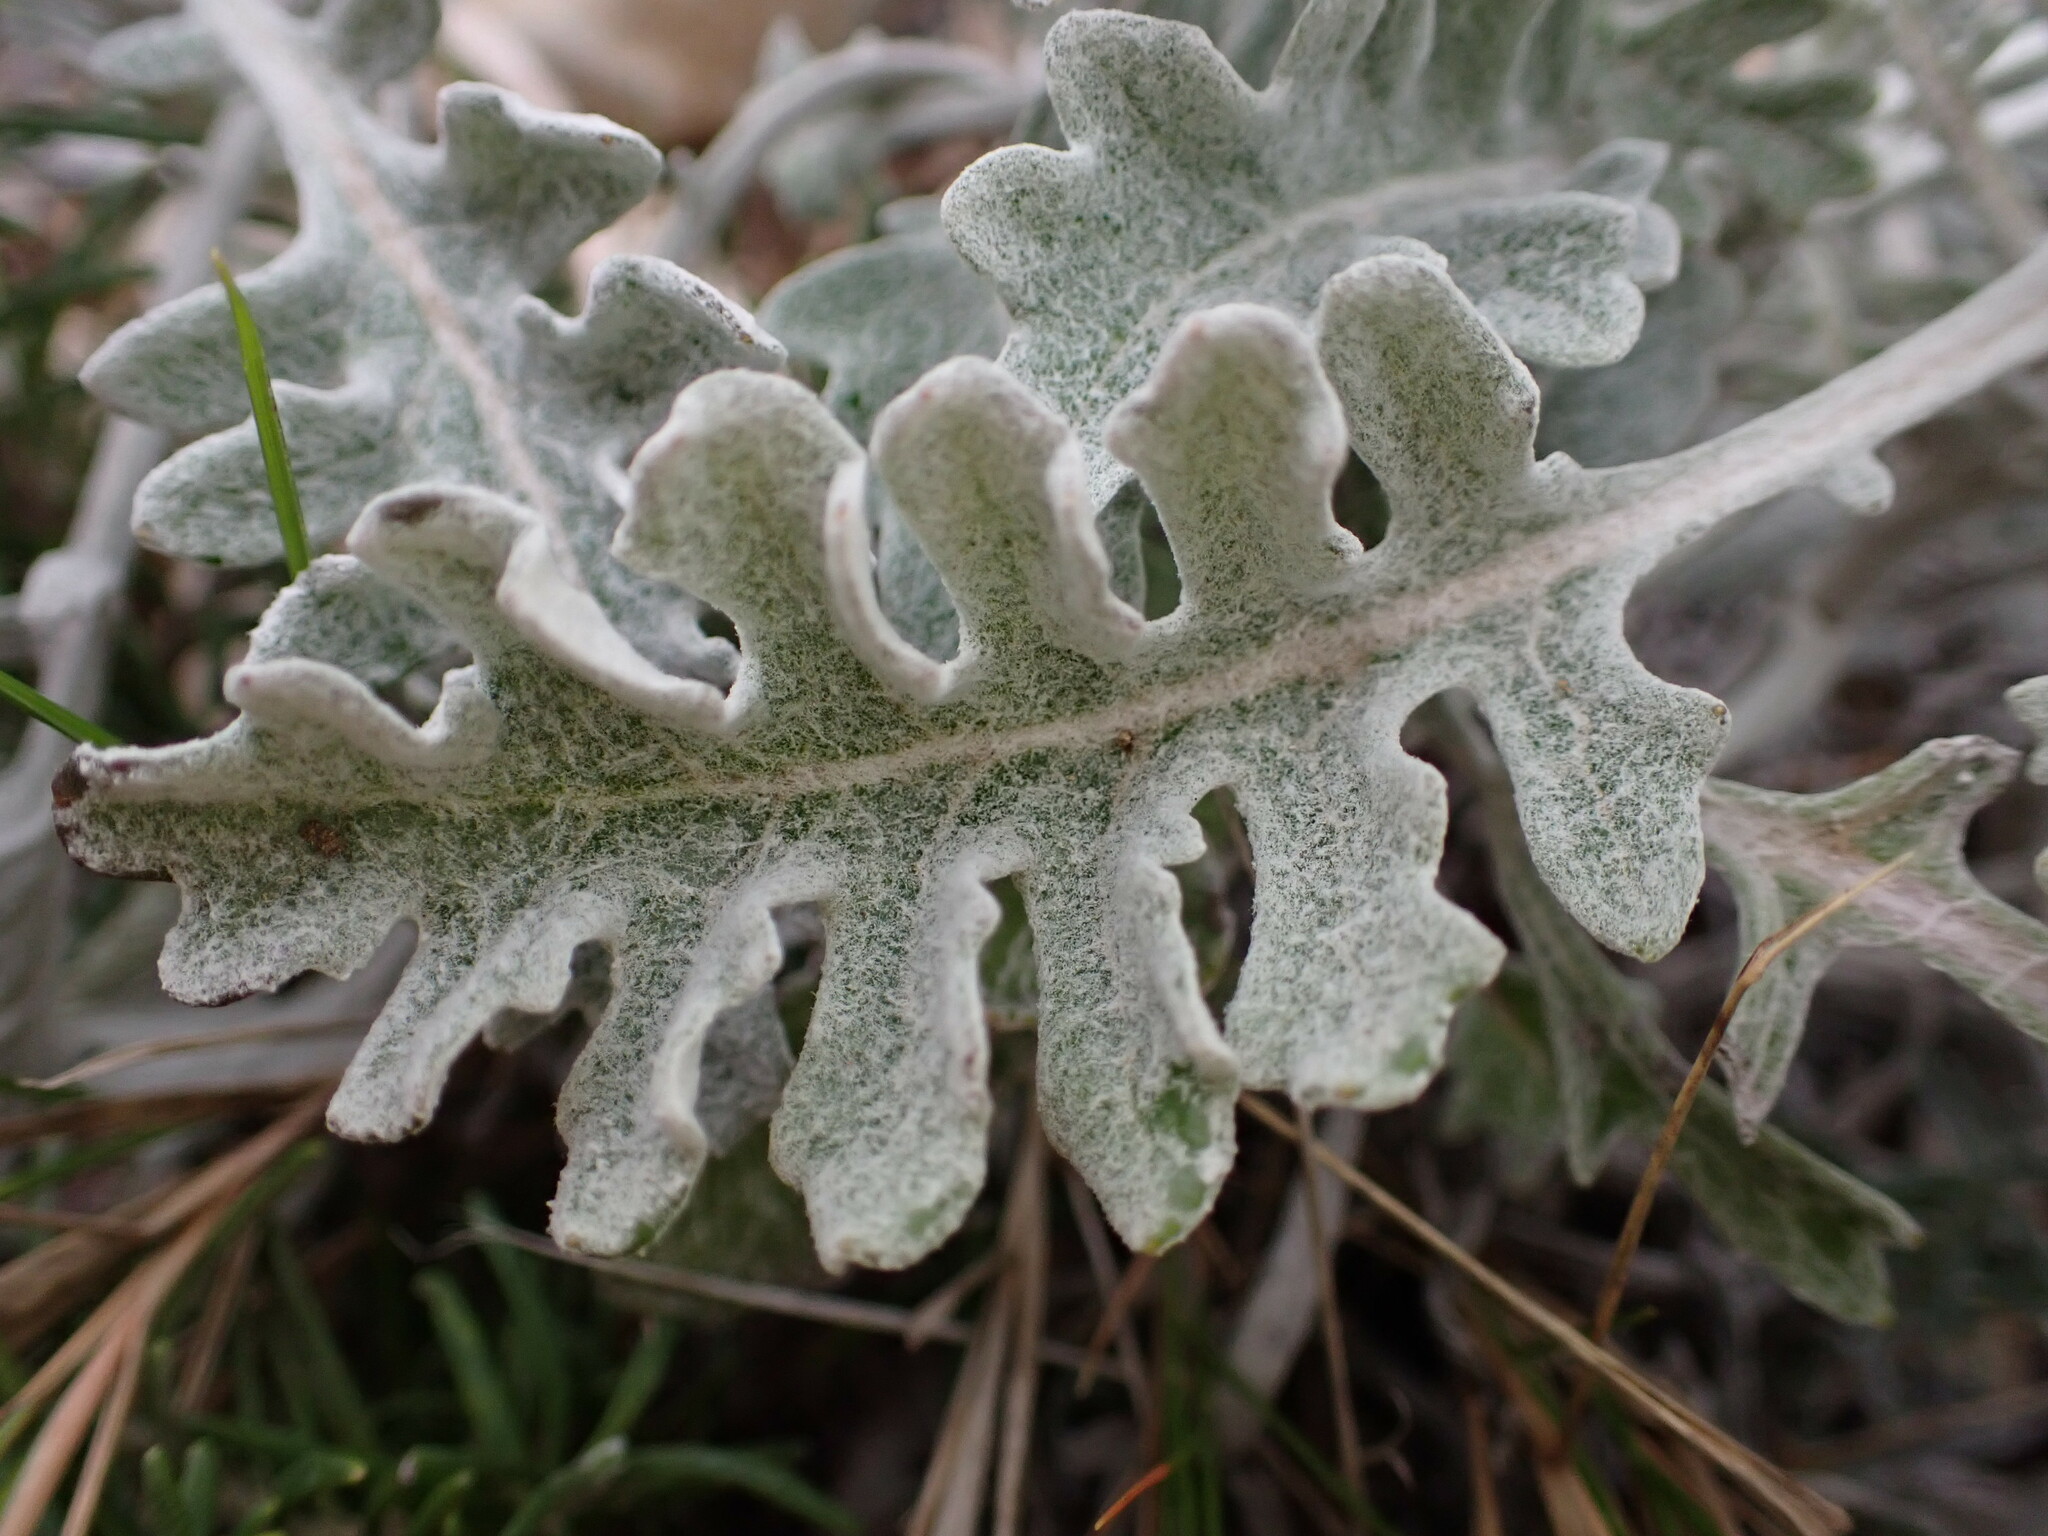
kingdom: Plantae
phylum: Tracheophyta
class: Magnoliopsida
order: Asterales
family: Asteraceae
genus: Jacobaea
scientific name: Jacobaea maritima
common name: Silver ragwort
